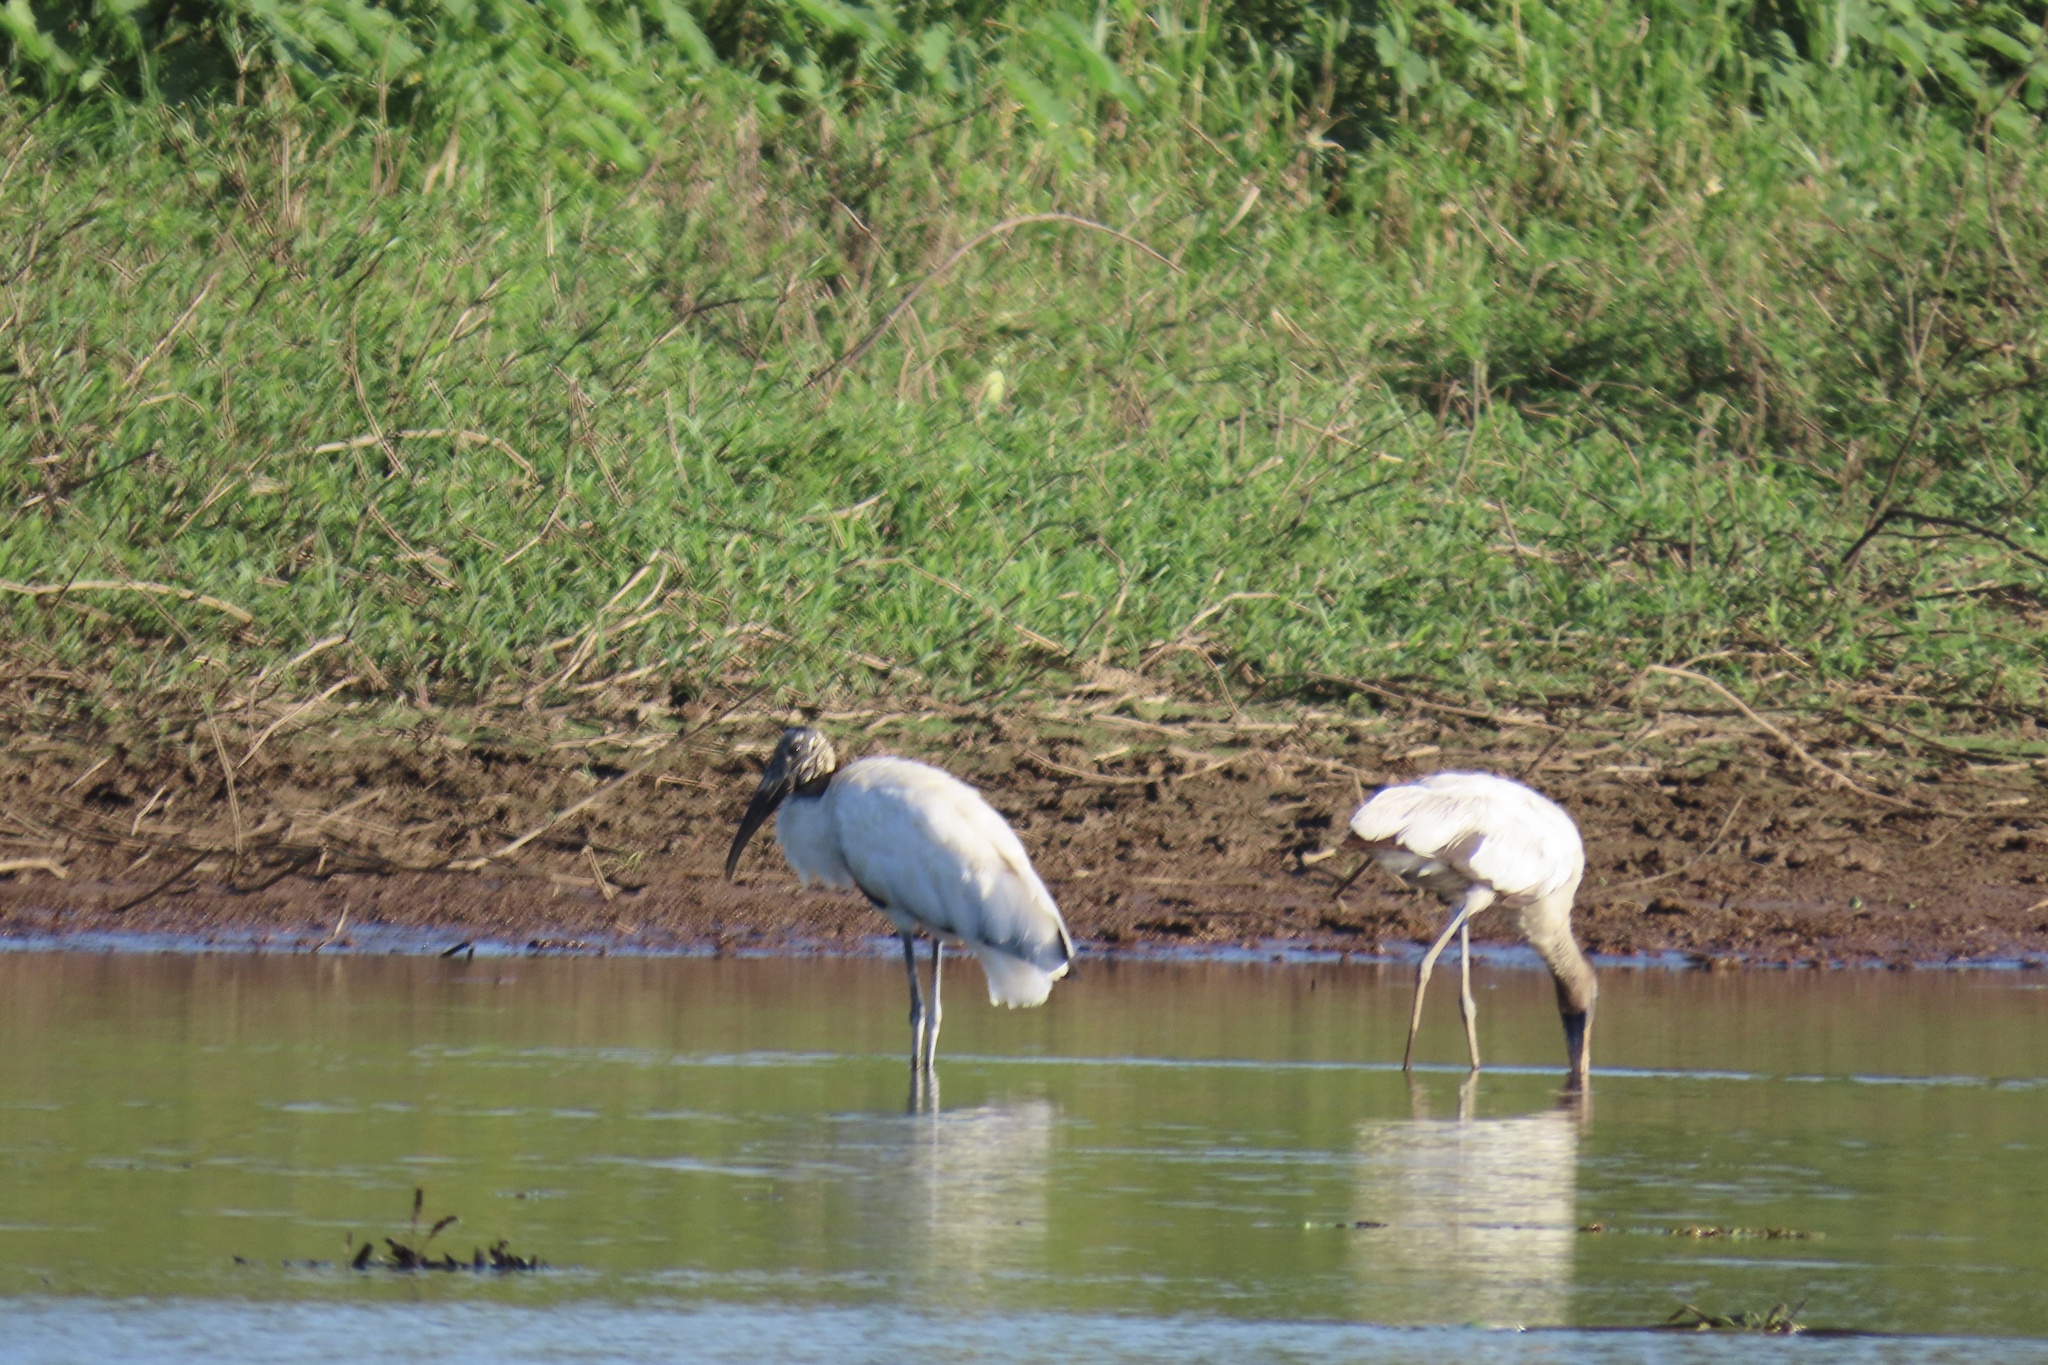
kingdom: Animalia
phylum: Chordata
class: Aves
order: Ciconiiformes
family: Ciconiidae
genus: Mycteria
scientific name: Mycteria americana
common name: Wood stork
